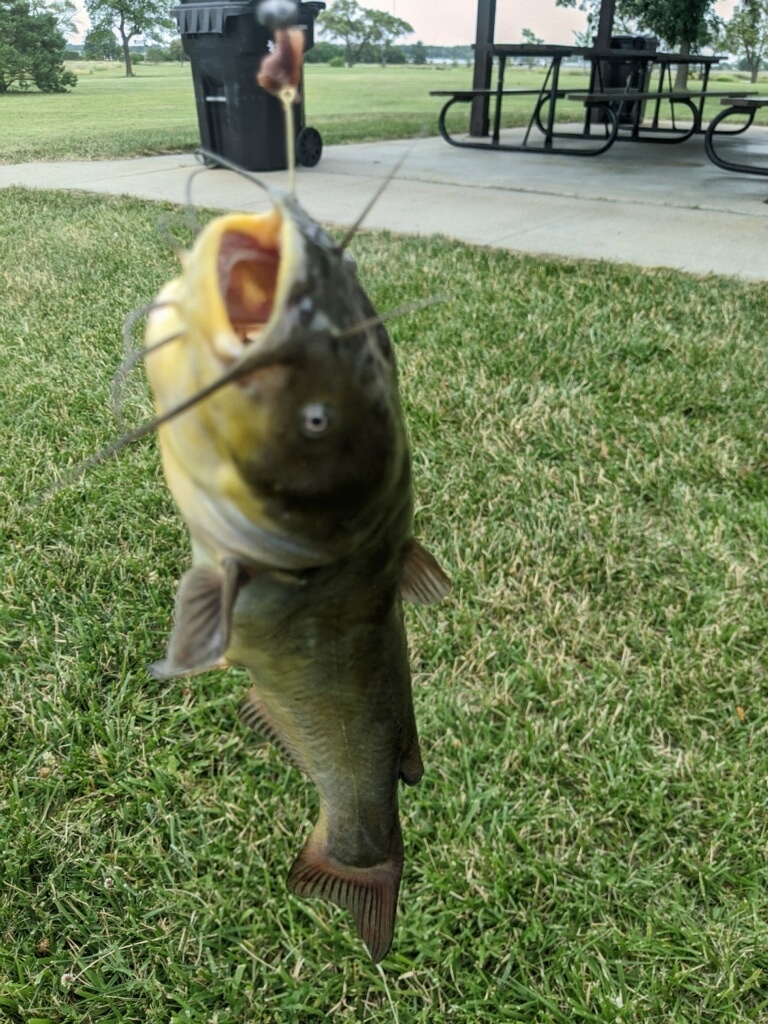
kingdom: Animalia
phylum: Chordata
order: Siluriformes
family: Ictaluridae
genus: Ameiurus
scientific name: Ameiurus melas
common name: Black bullhead
